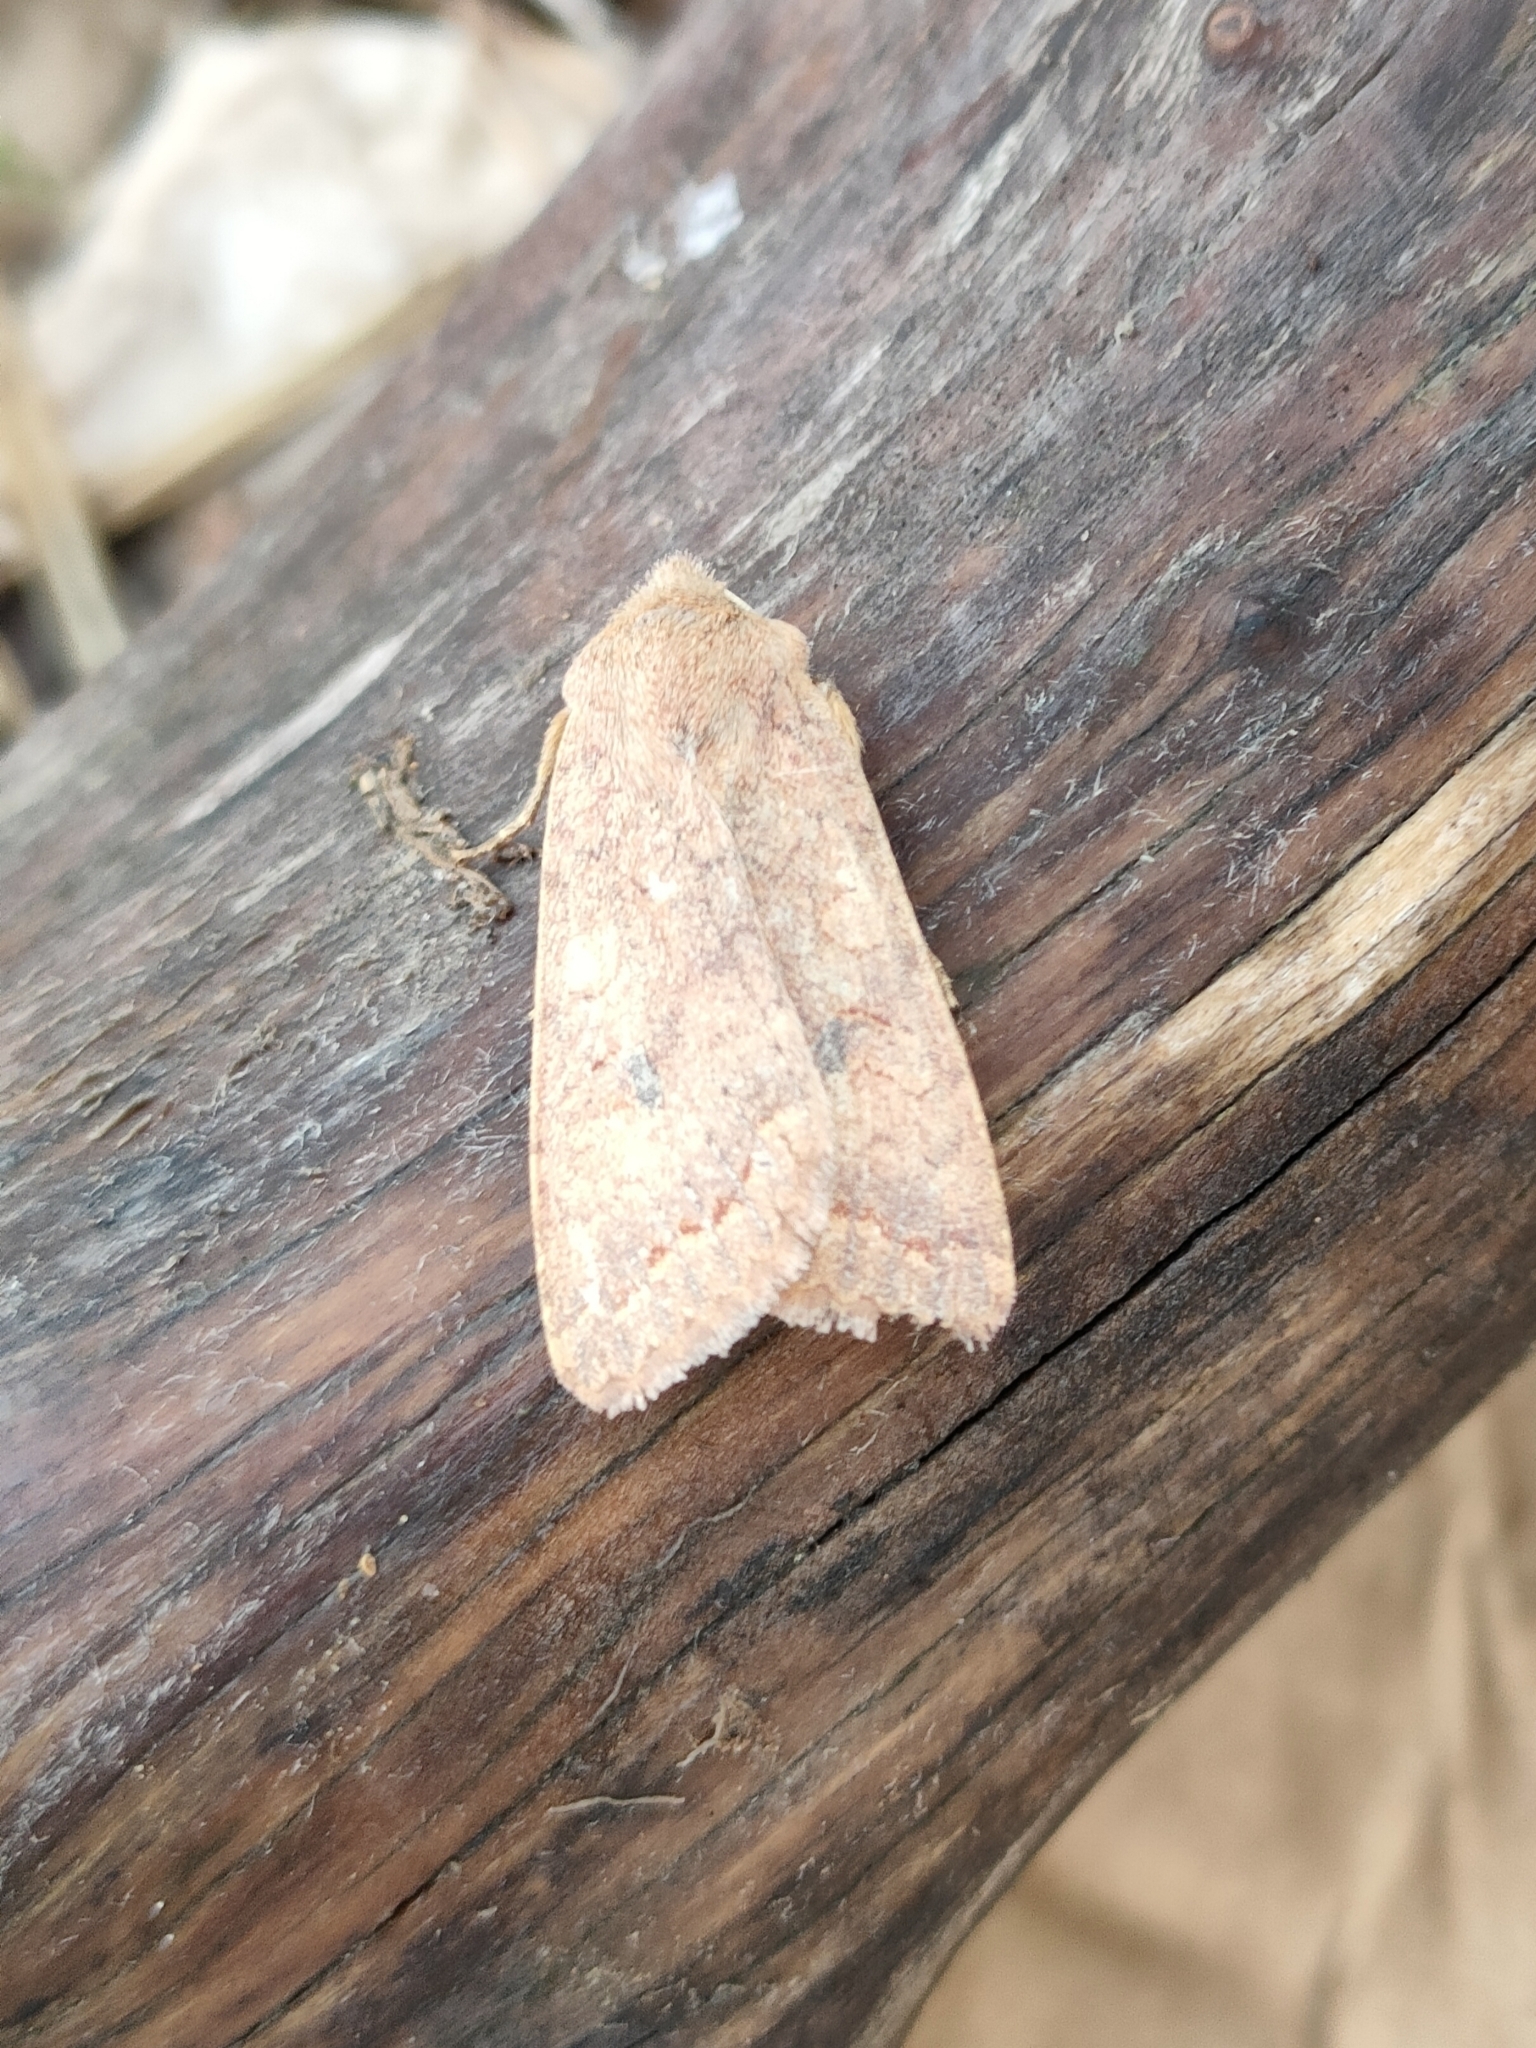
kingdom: Animalia
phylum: Arthropoda
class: Insecta
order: Lepidoptera
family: Noctuidae
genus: Sunira
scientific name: Sunira circellaris
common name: Brick
